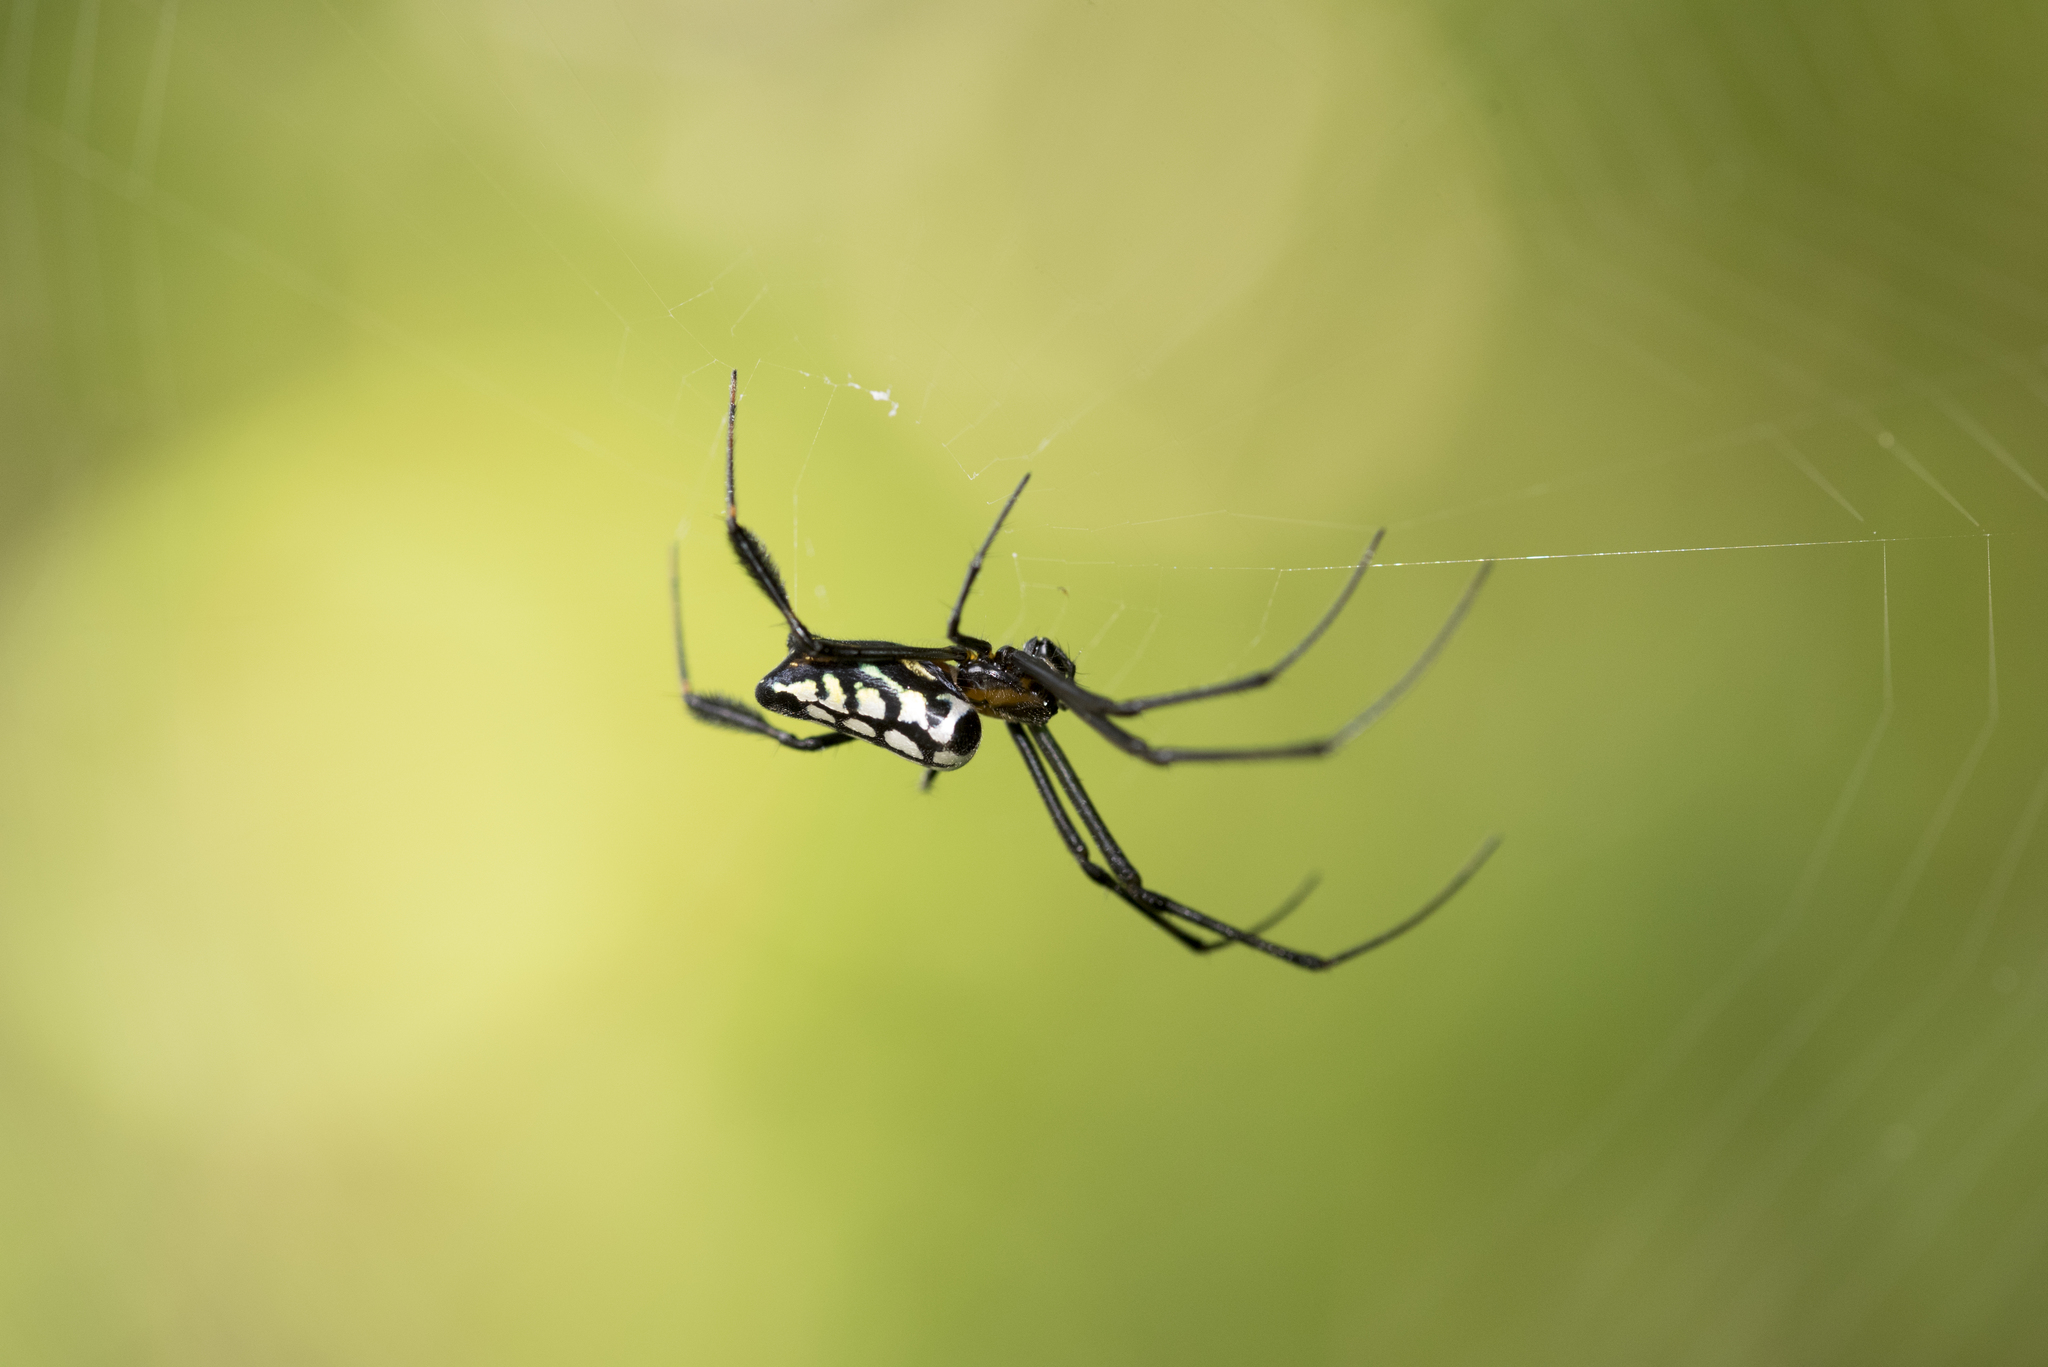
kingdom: Animalia
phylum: Arthropoda
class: Arachnida
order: Araneae
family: Tetragnathidae
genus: Leucauge
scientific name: Leucauge tessellata
